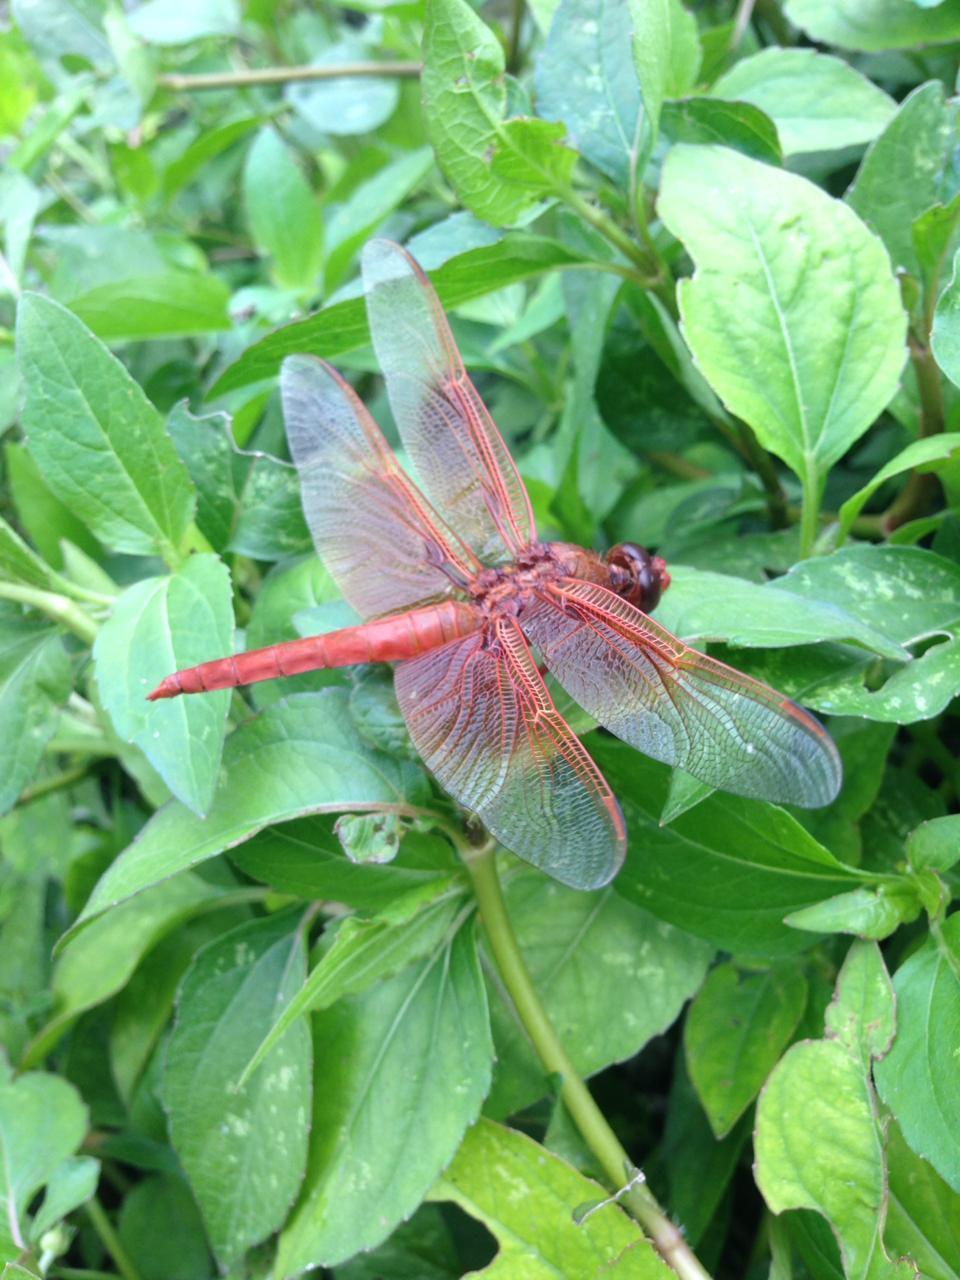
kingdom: Animalia
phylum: Arthropoda
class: Insecta
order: Odonata
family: Libellulidae
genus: Libellula
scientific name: Libellula saturata
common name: Flame skimmer
